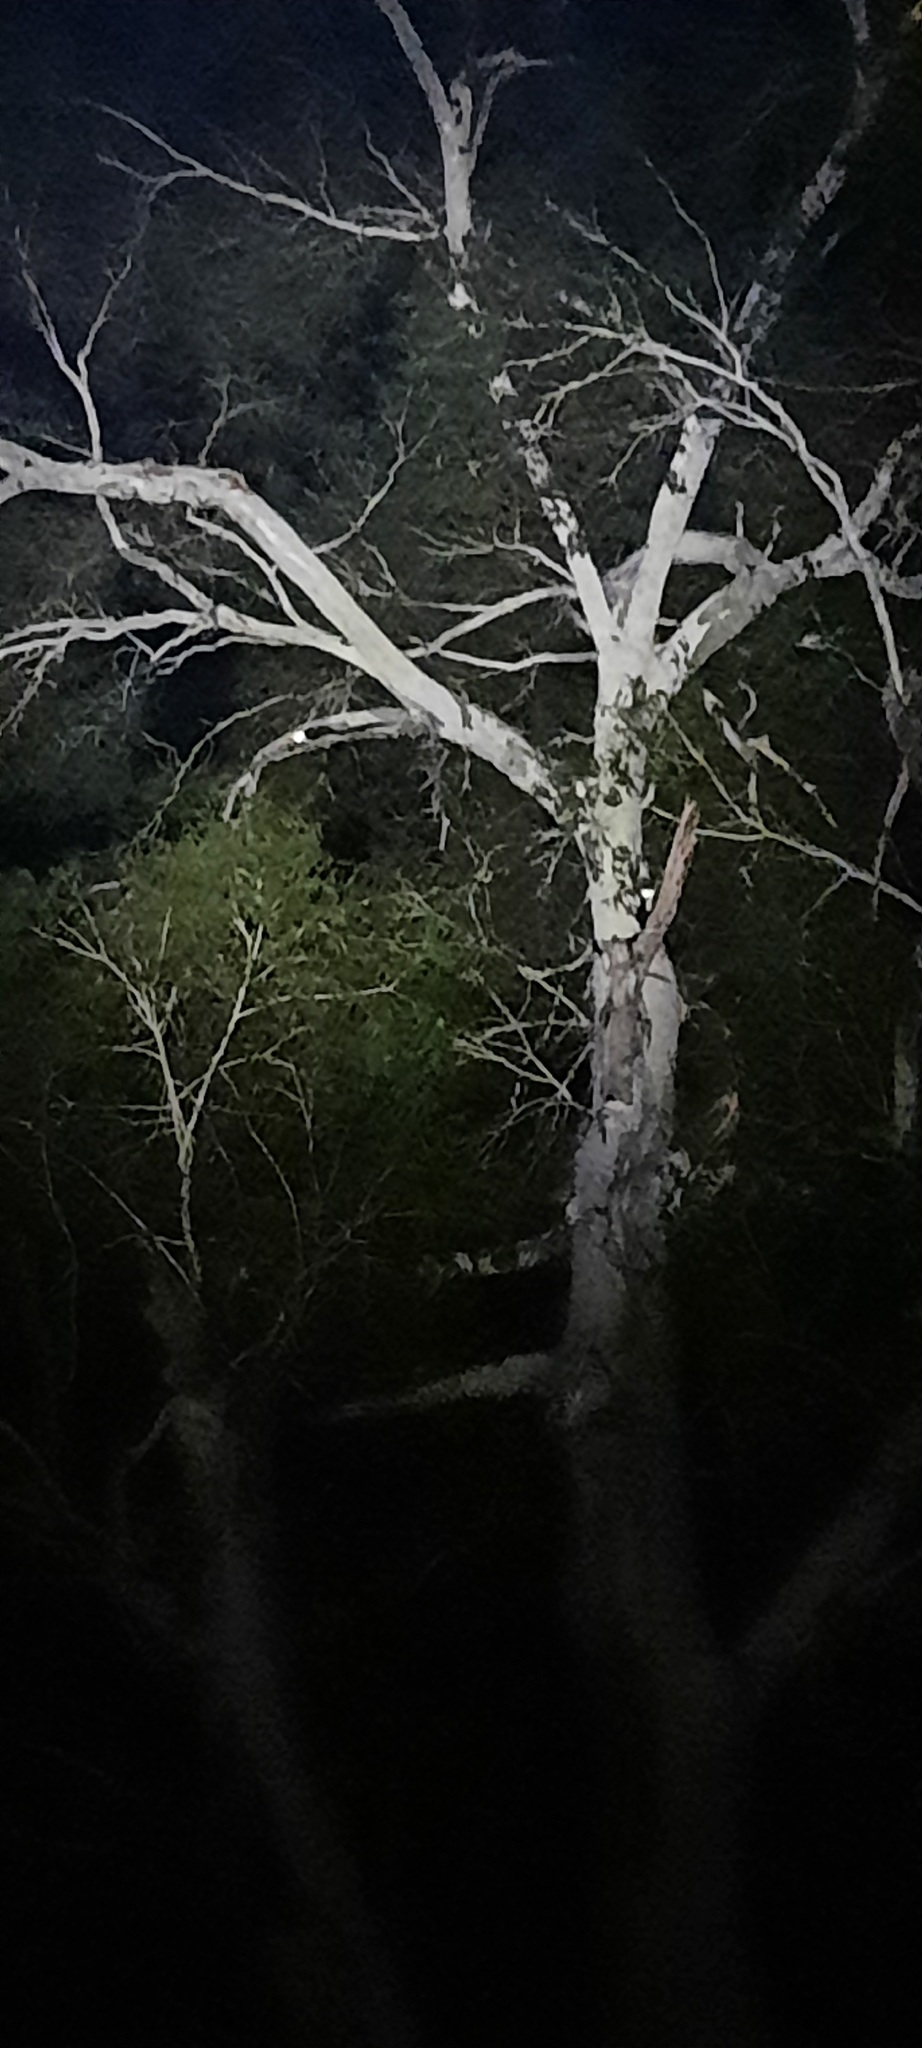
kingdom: Animalia
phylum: Chordata
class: Mammalia
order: Diprotodontia
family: Pseudocheiridae
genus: Petauroides
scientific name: Petauroides volans
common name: Greater glider
